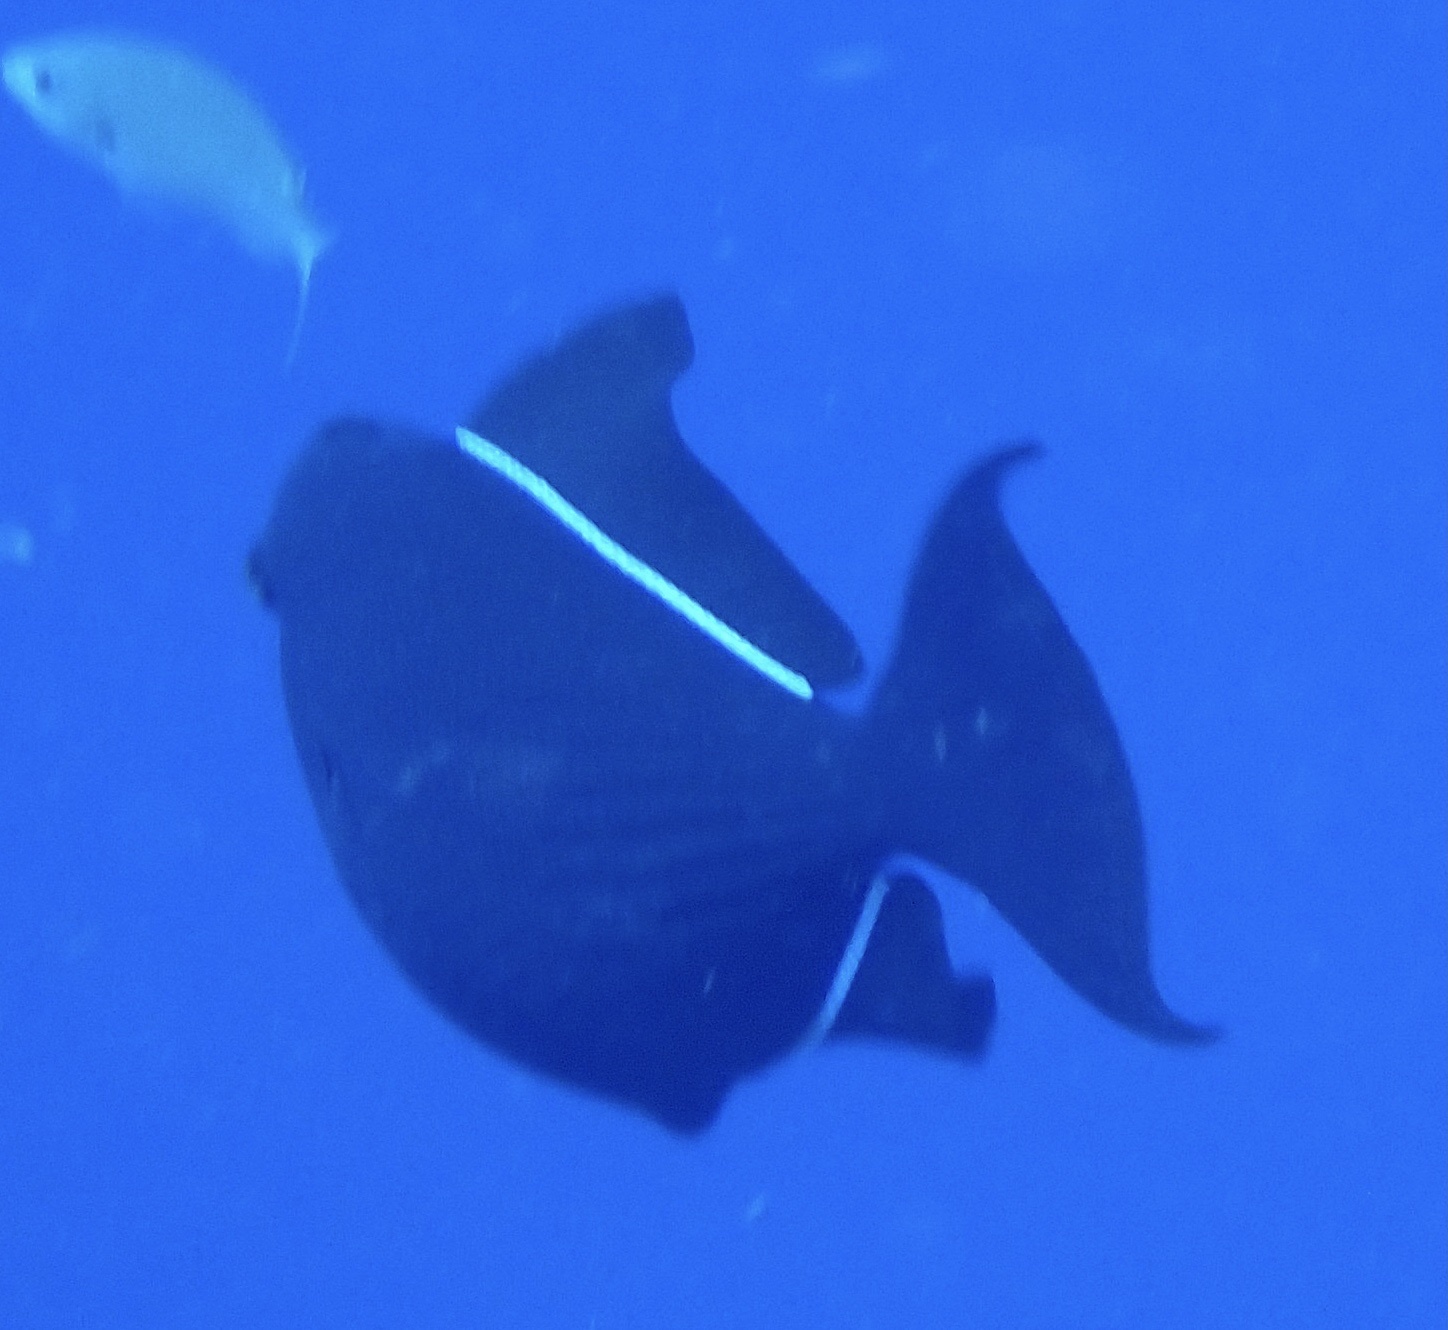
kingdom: Animalia
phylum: Chordata
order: Tetraodontiformes
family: Balistidae
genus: Melichthys
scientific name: Melichthys niger
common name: Black durgon
